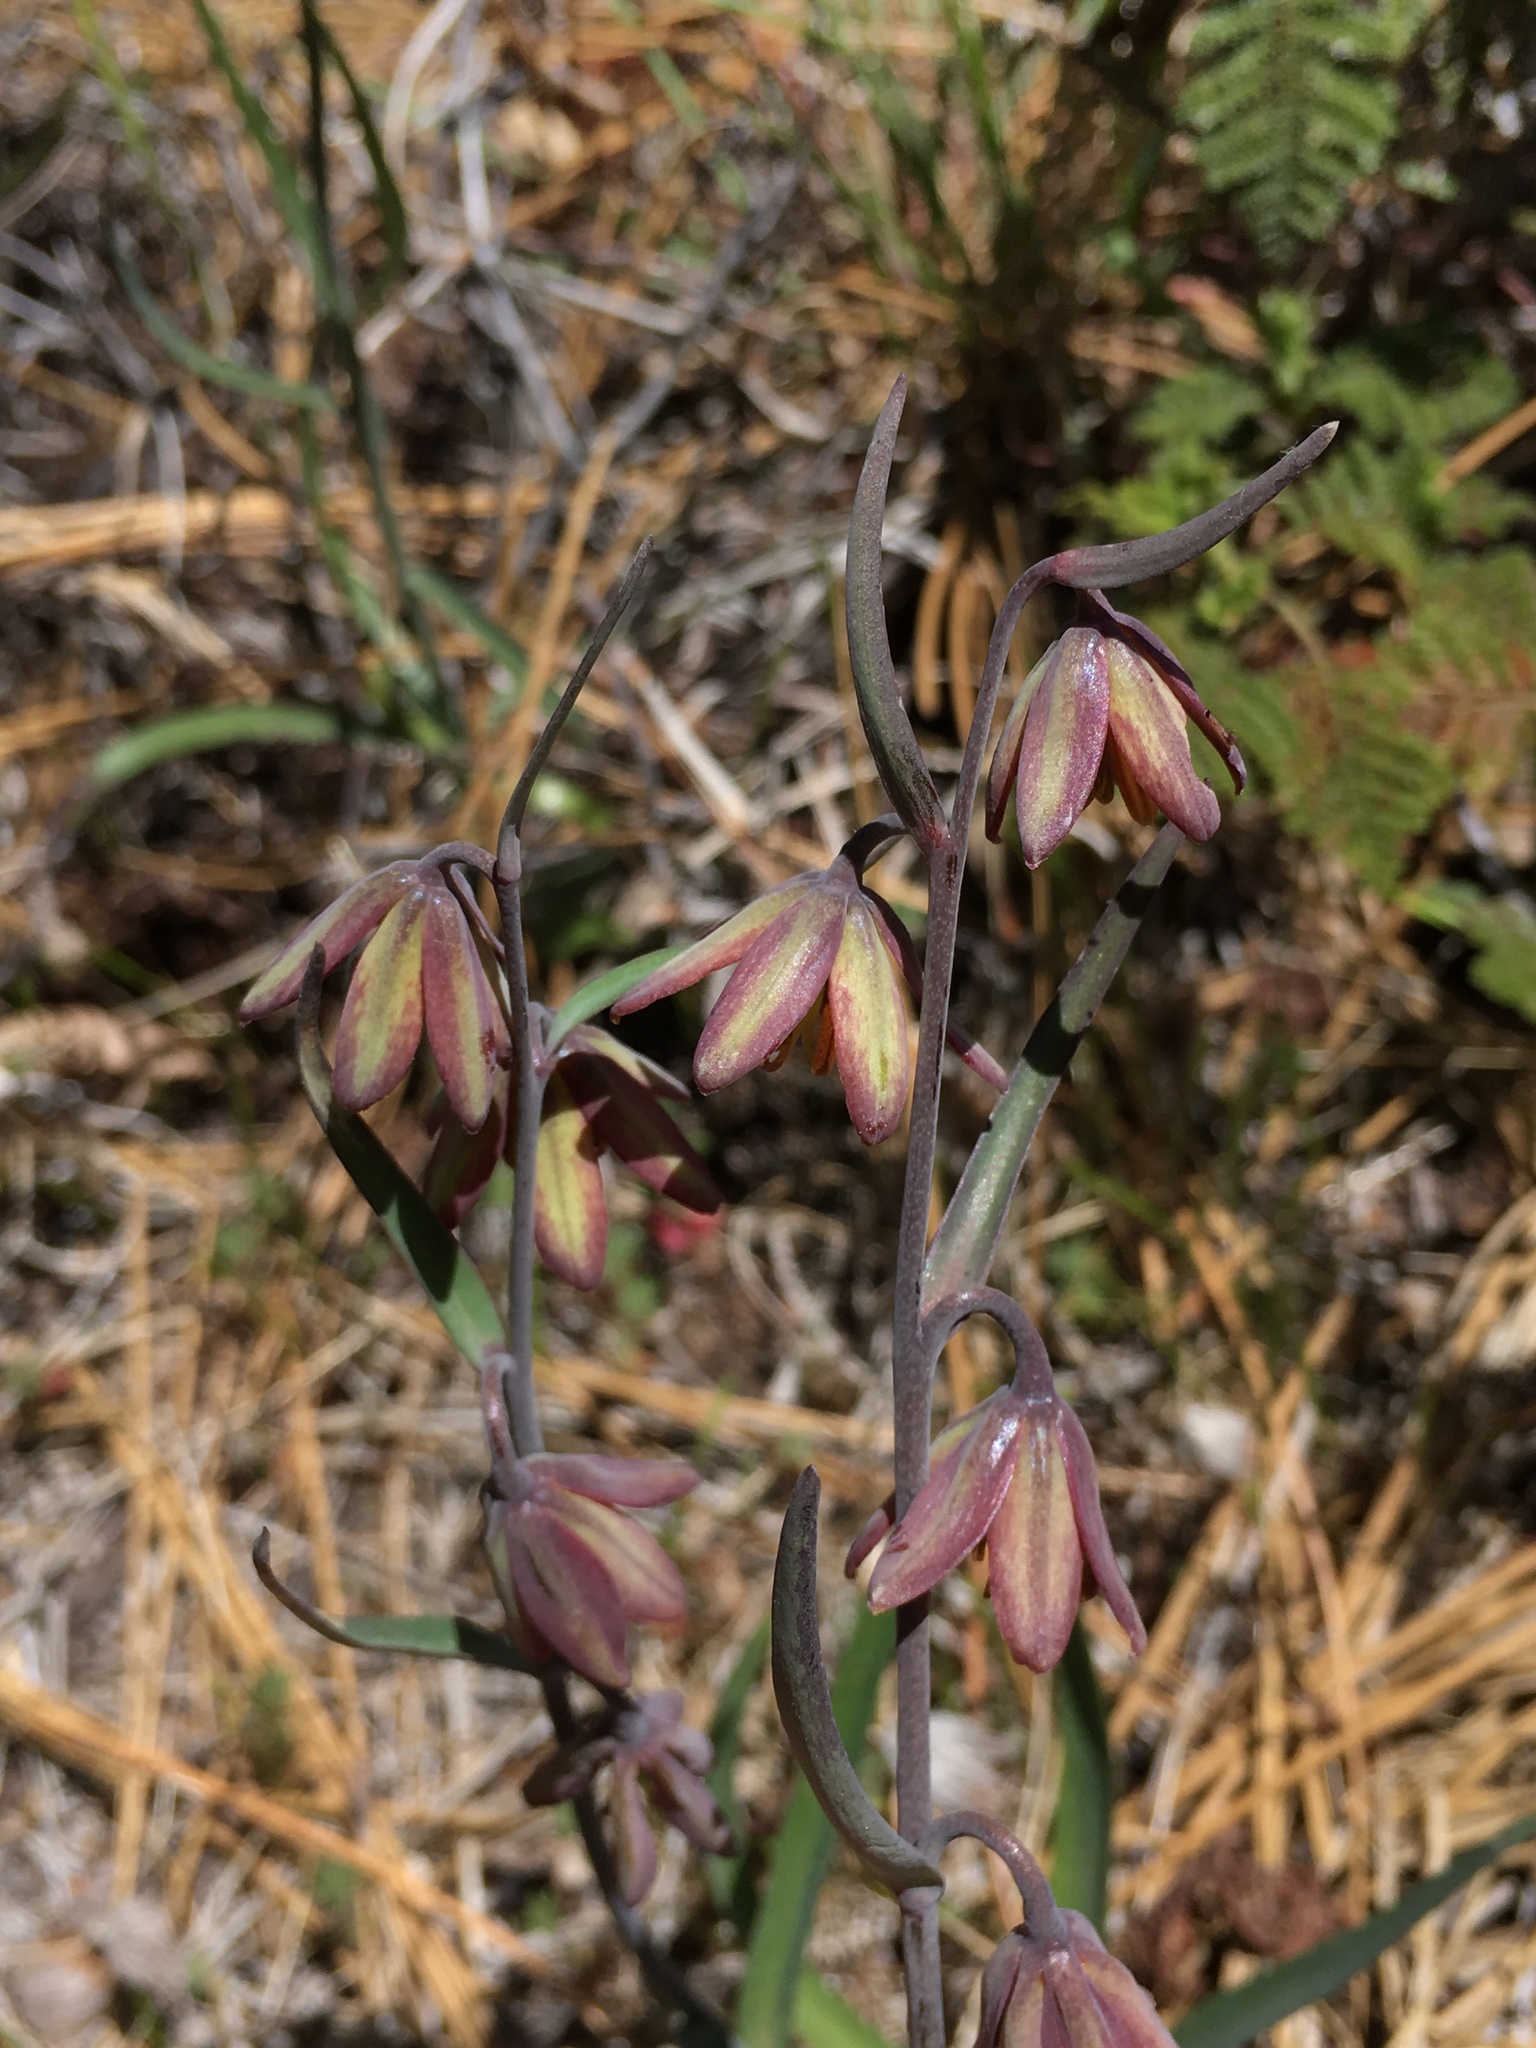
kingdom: Plantae
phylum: Tracheophyta
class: Liliopsida
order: Liliales
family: Liliaceae
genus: Fritillaria
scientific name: Fritillaria micrantha
